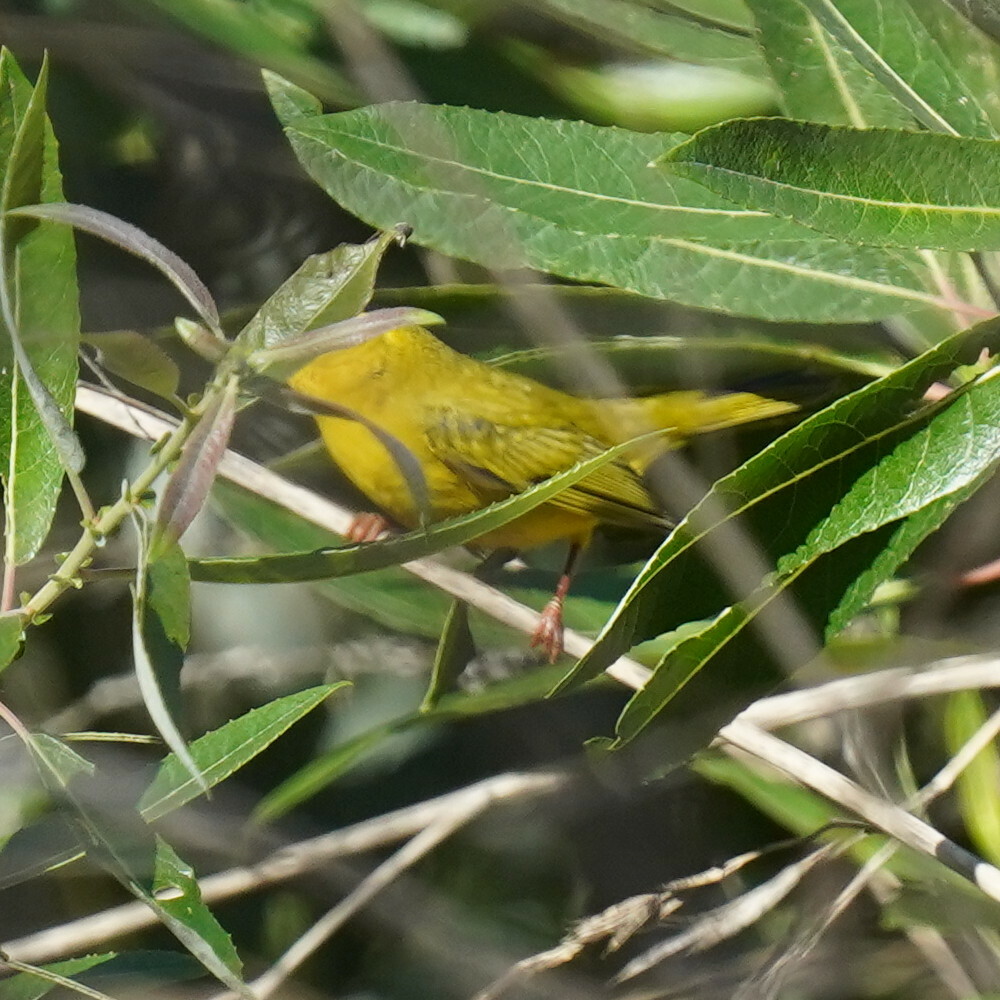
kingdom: Animalia
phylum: Chordata
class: Aves
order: Passeriformes
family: Parulidae
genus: Cardellina
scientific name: Cardellina pusilla
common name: Wilson's warbler
